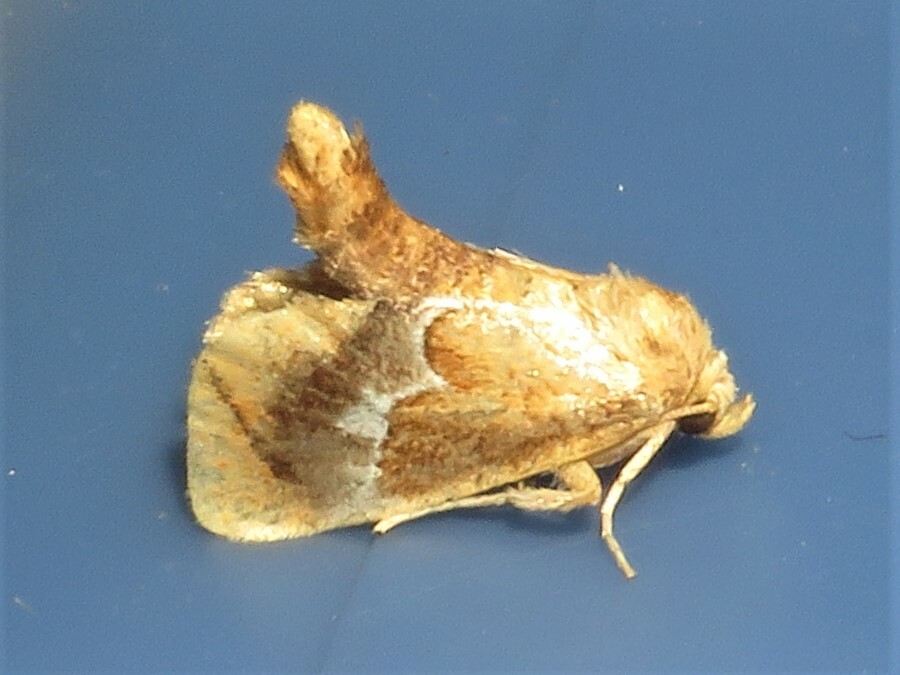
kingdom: Animalia
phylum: Arthropoda
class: Insecta
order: Lepidoptera
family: Limacodidae
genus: Lithacodes
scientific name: Lithacodes fasciola
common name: Yellow-shouldered slug moth
